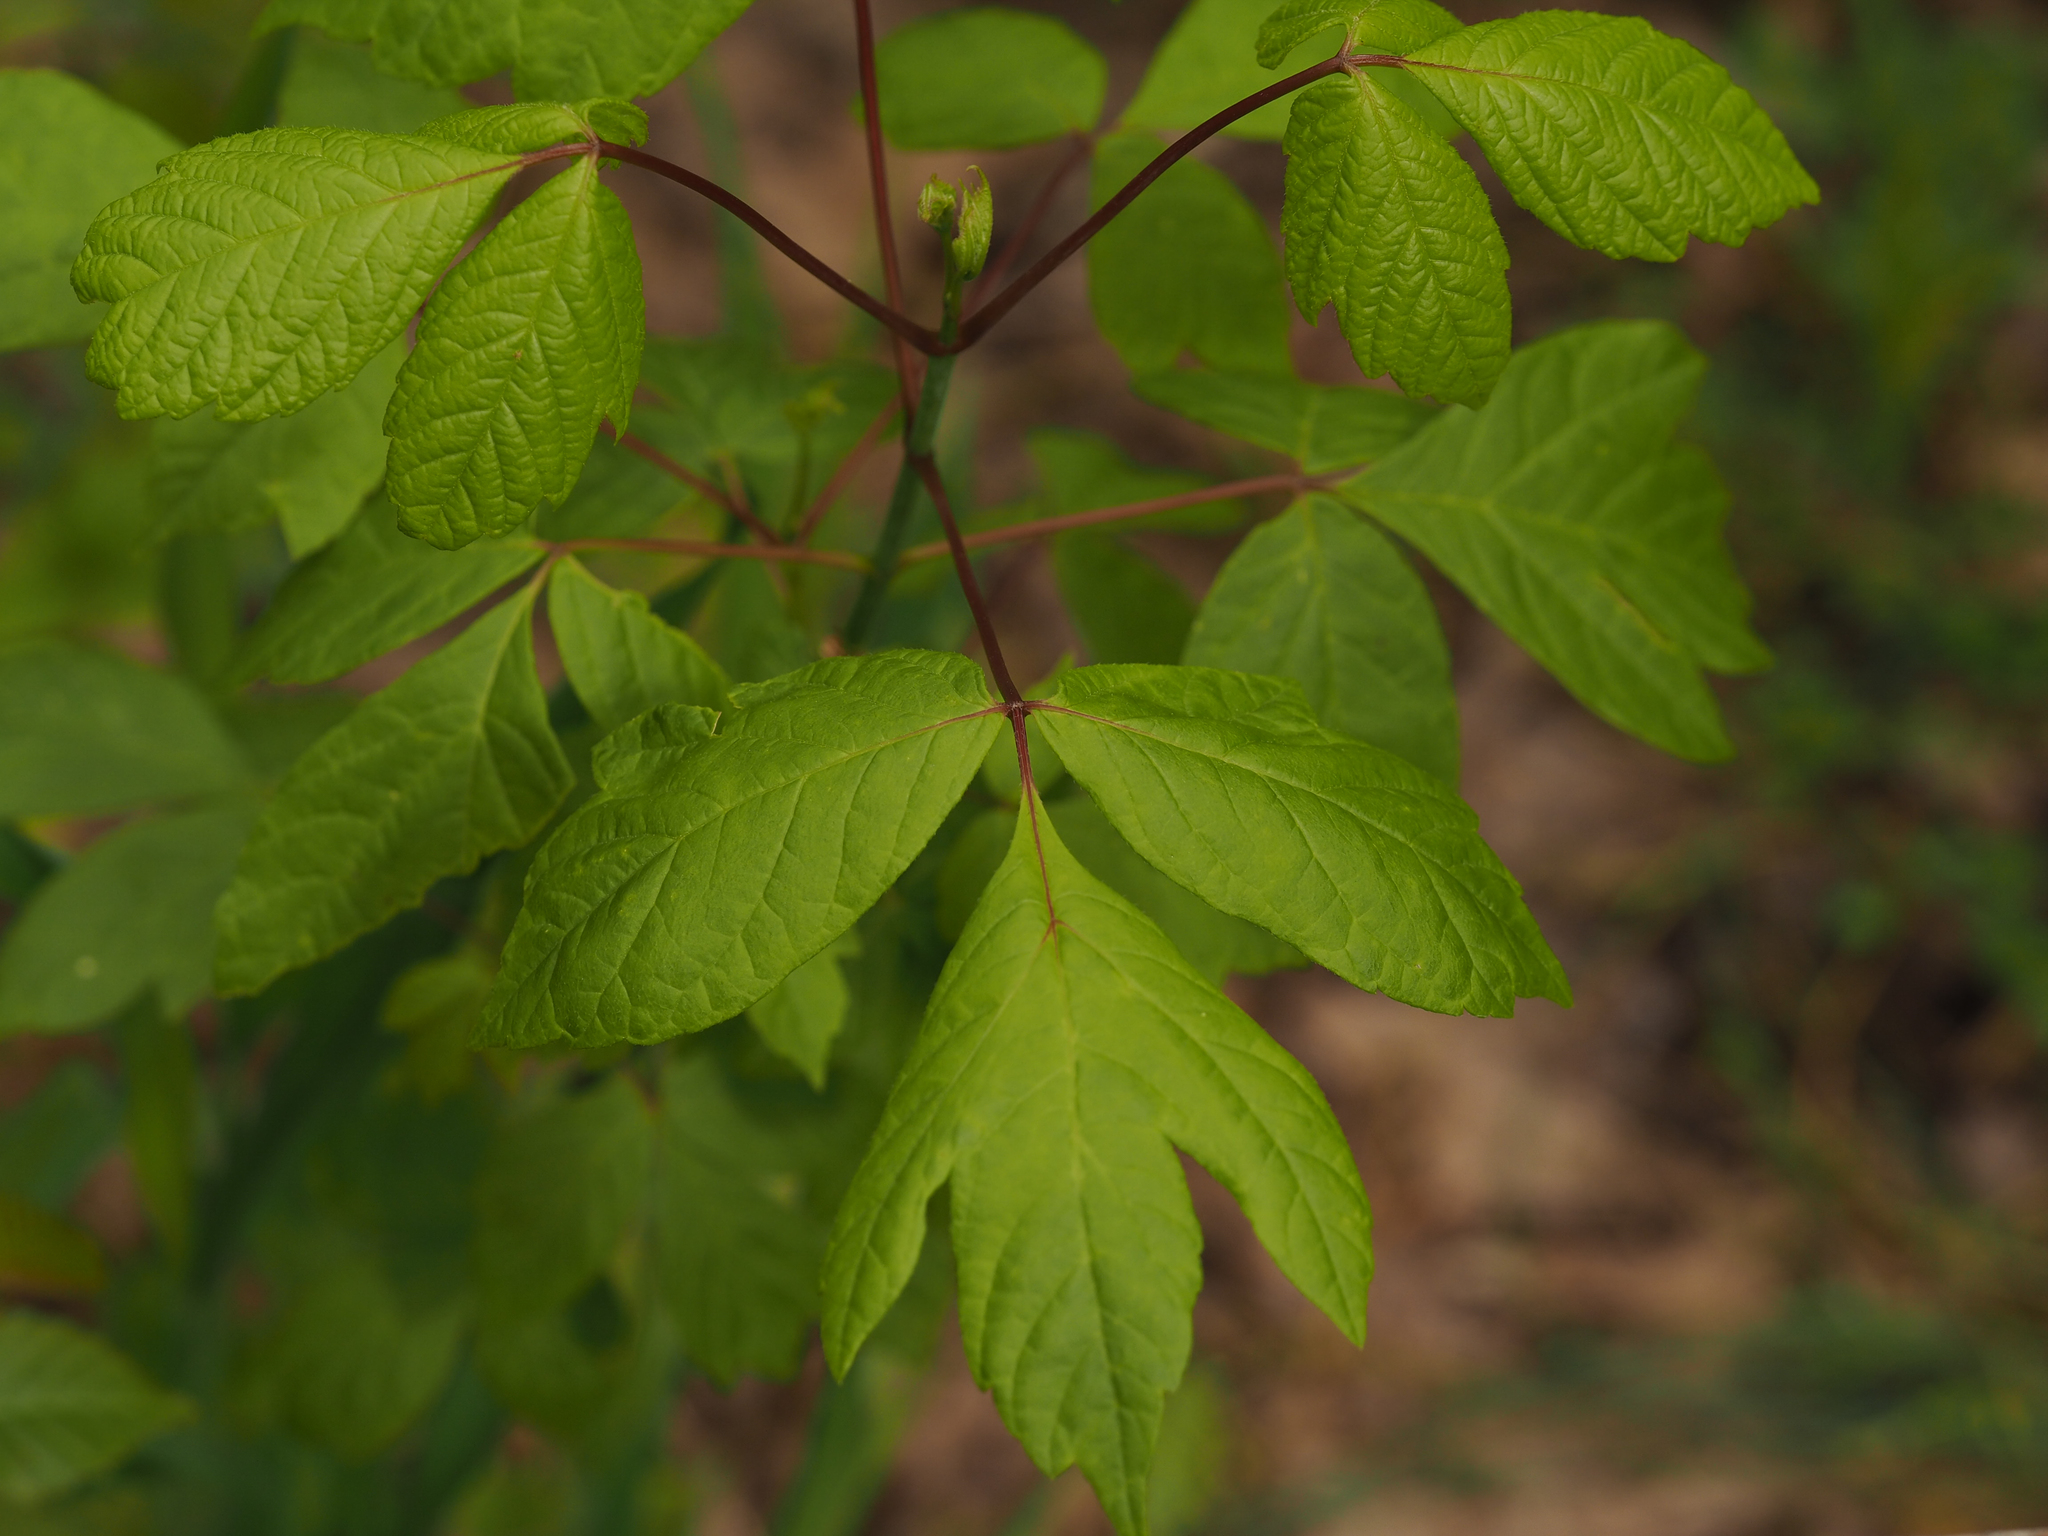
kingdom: Plantae
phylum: Tracheophyta
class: Magnoliopsida
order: Sapindales
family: Sapindaceae
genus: Acer
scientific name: Acer negundo
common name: Ashleaf maple
